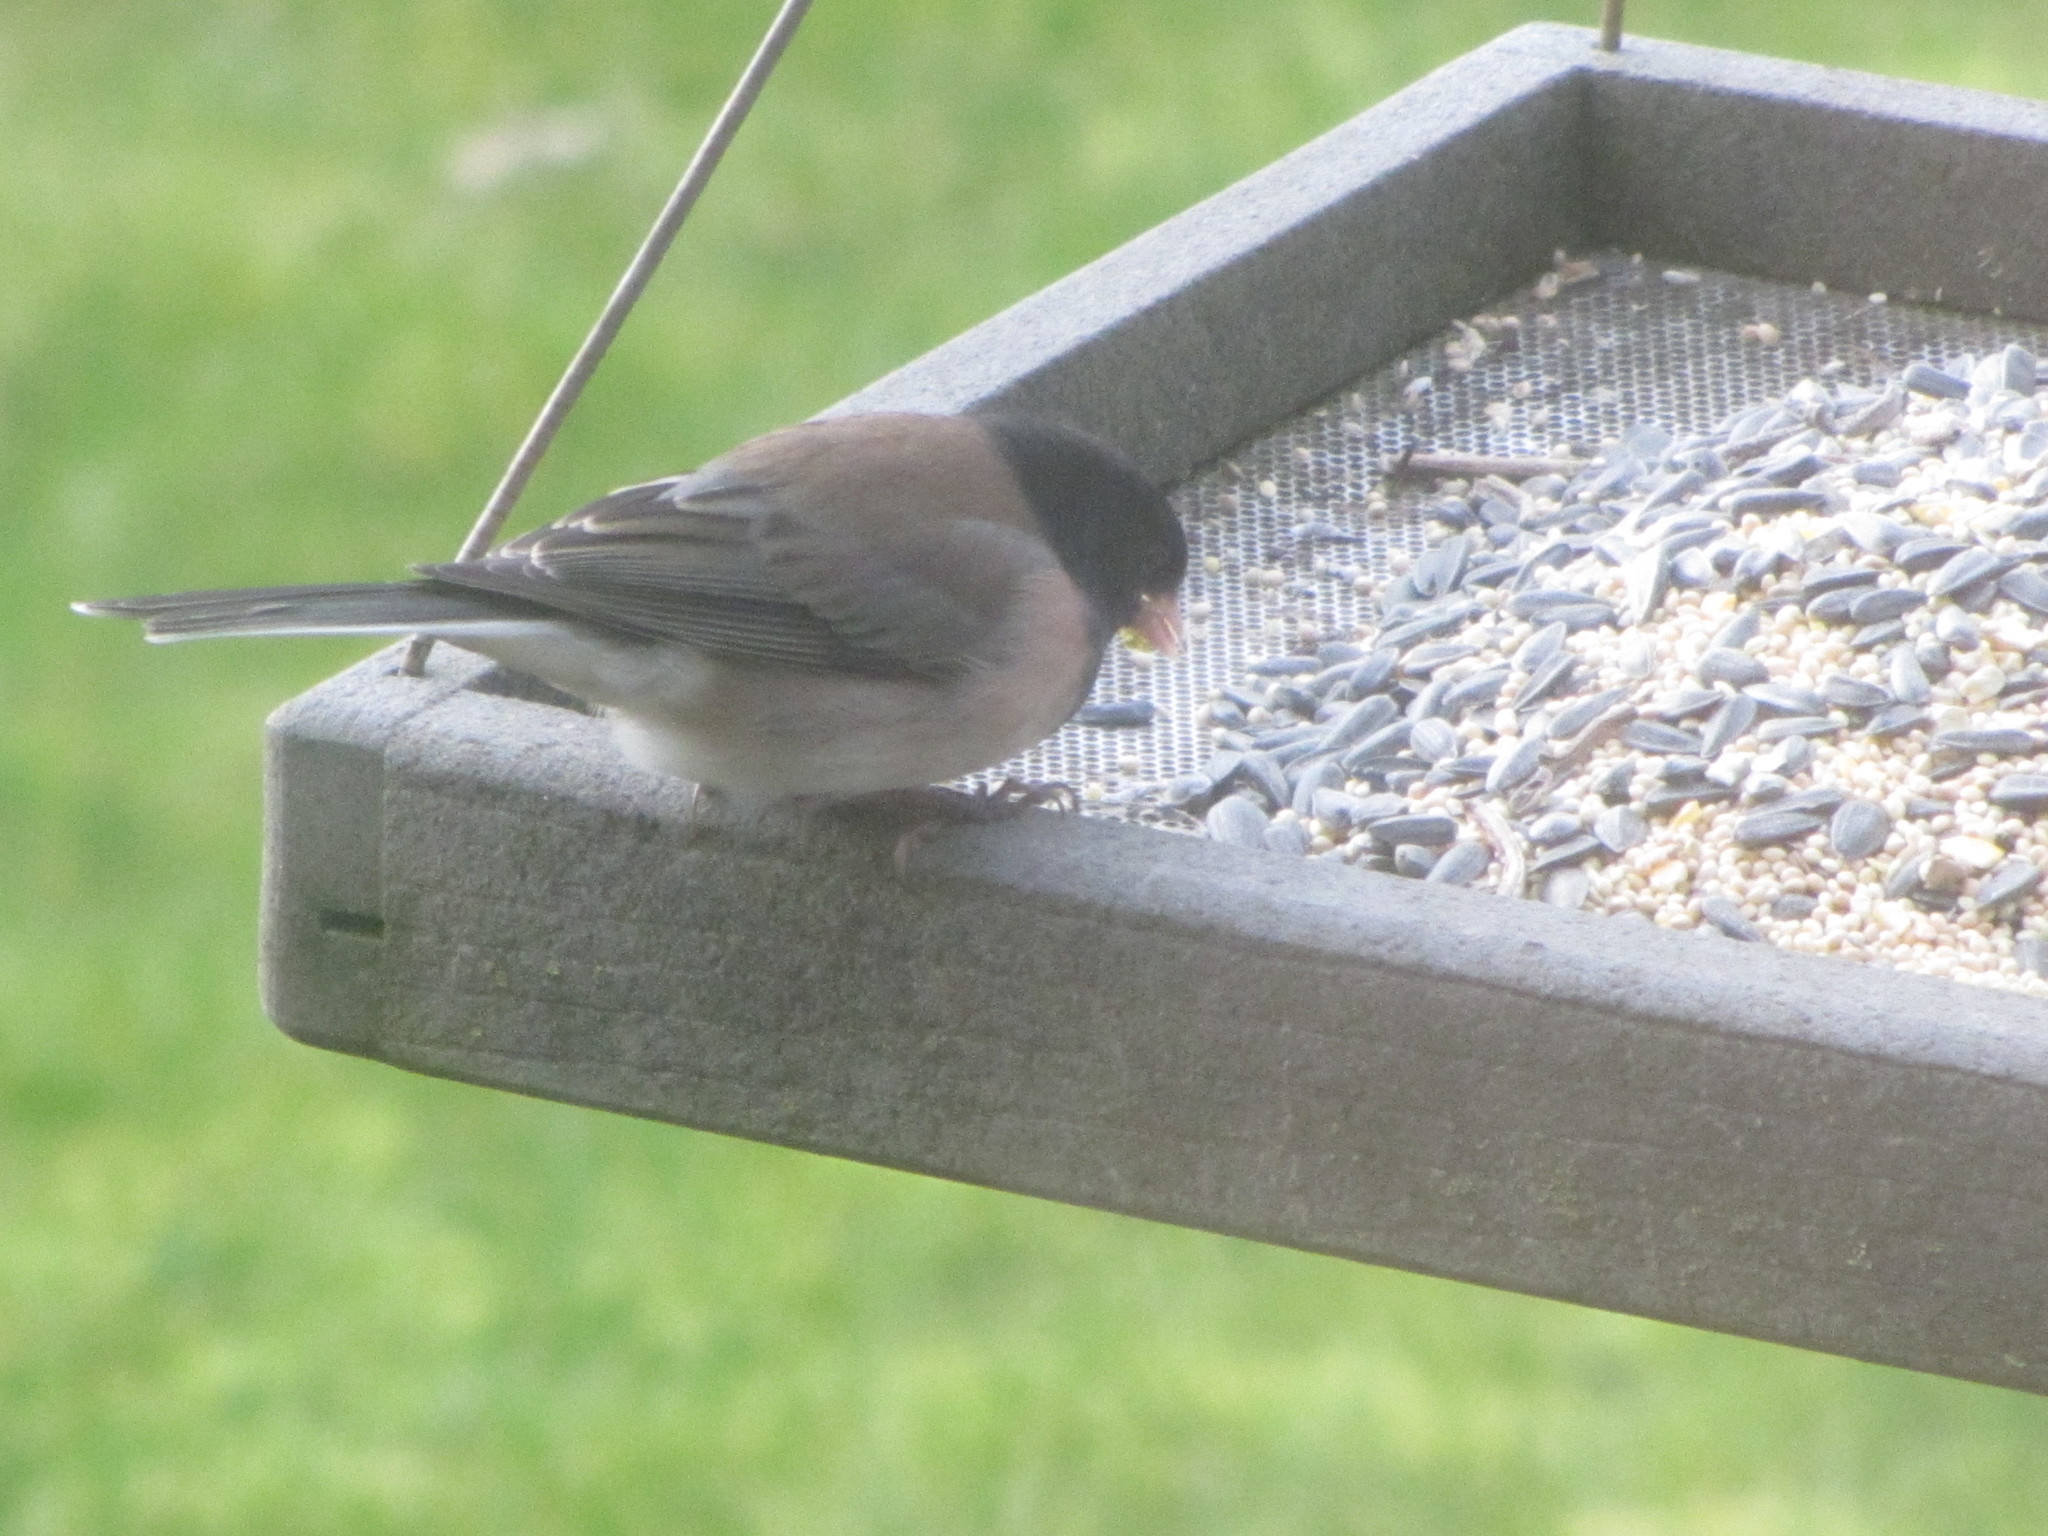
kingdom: Animalia
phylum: Chordata
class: Aves
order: Passeriformes
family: Passerellidae
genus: Junco
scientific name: Junco hyemalis
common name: Dark-eyed junco
